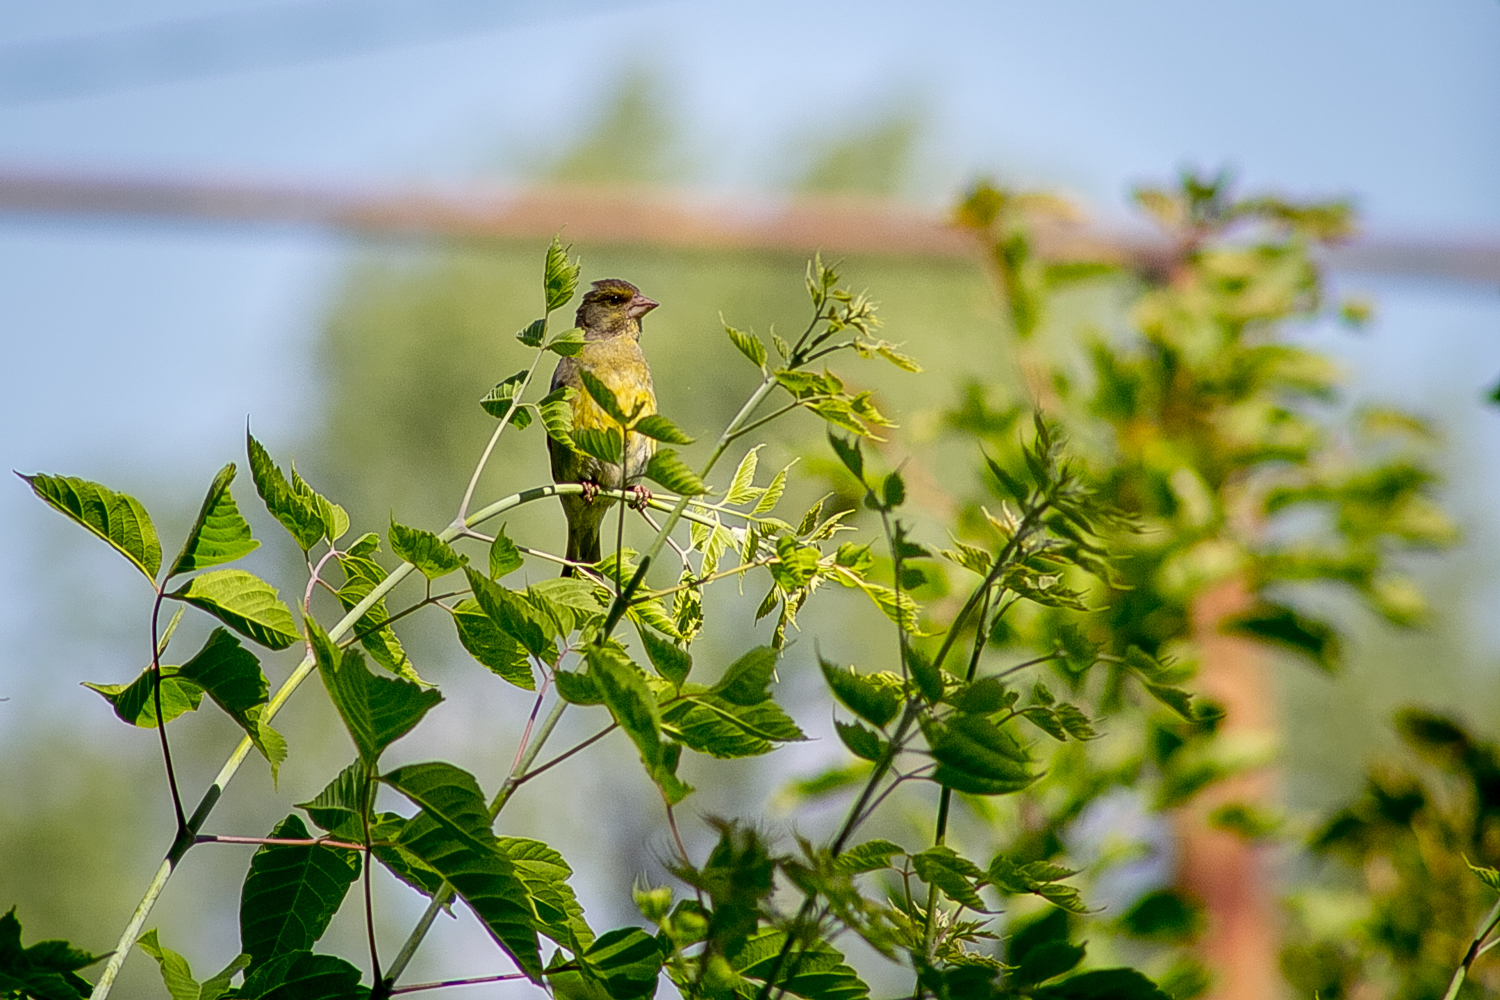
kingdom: Plantae
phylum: Tracheophyta
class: Liliopsida
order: Poales
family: Poaceae
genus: Chloris
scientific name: Chloris chloris
